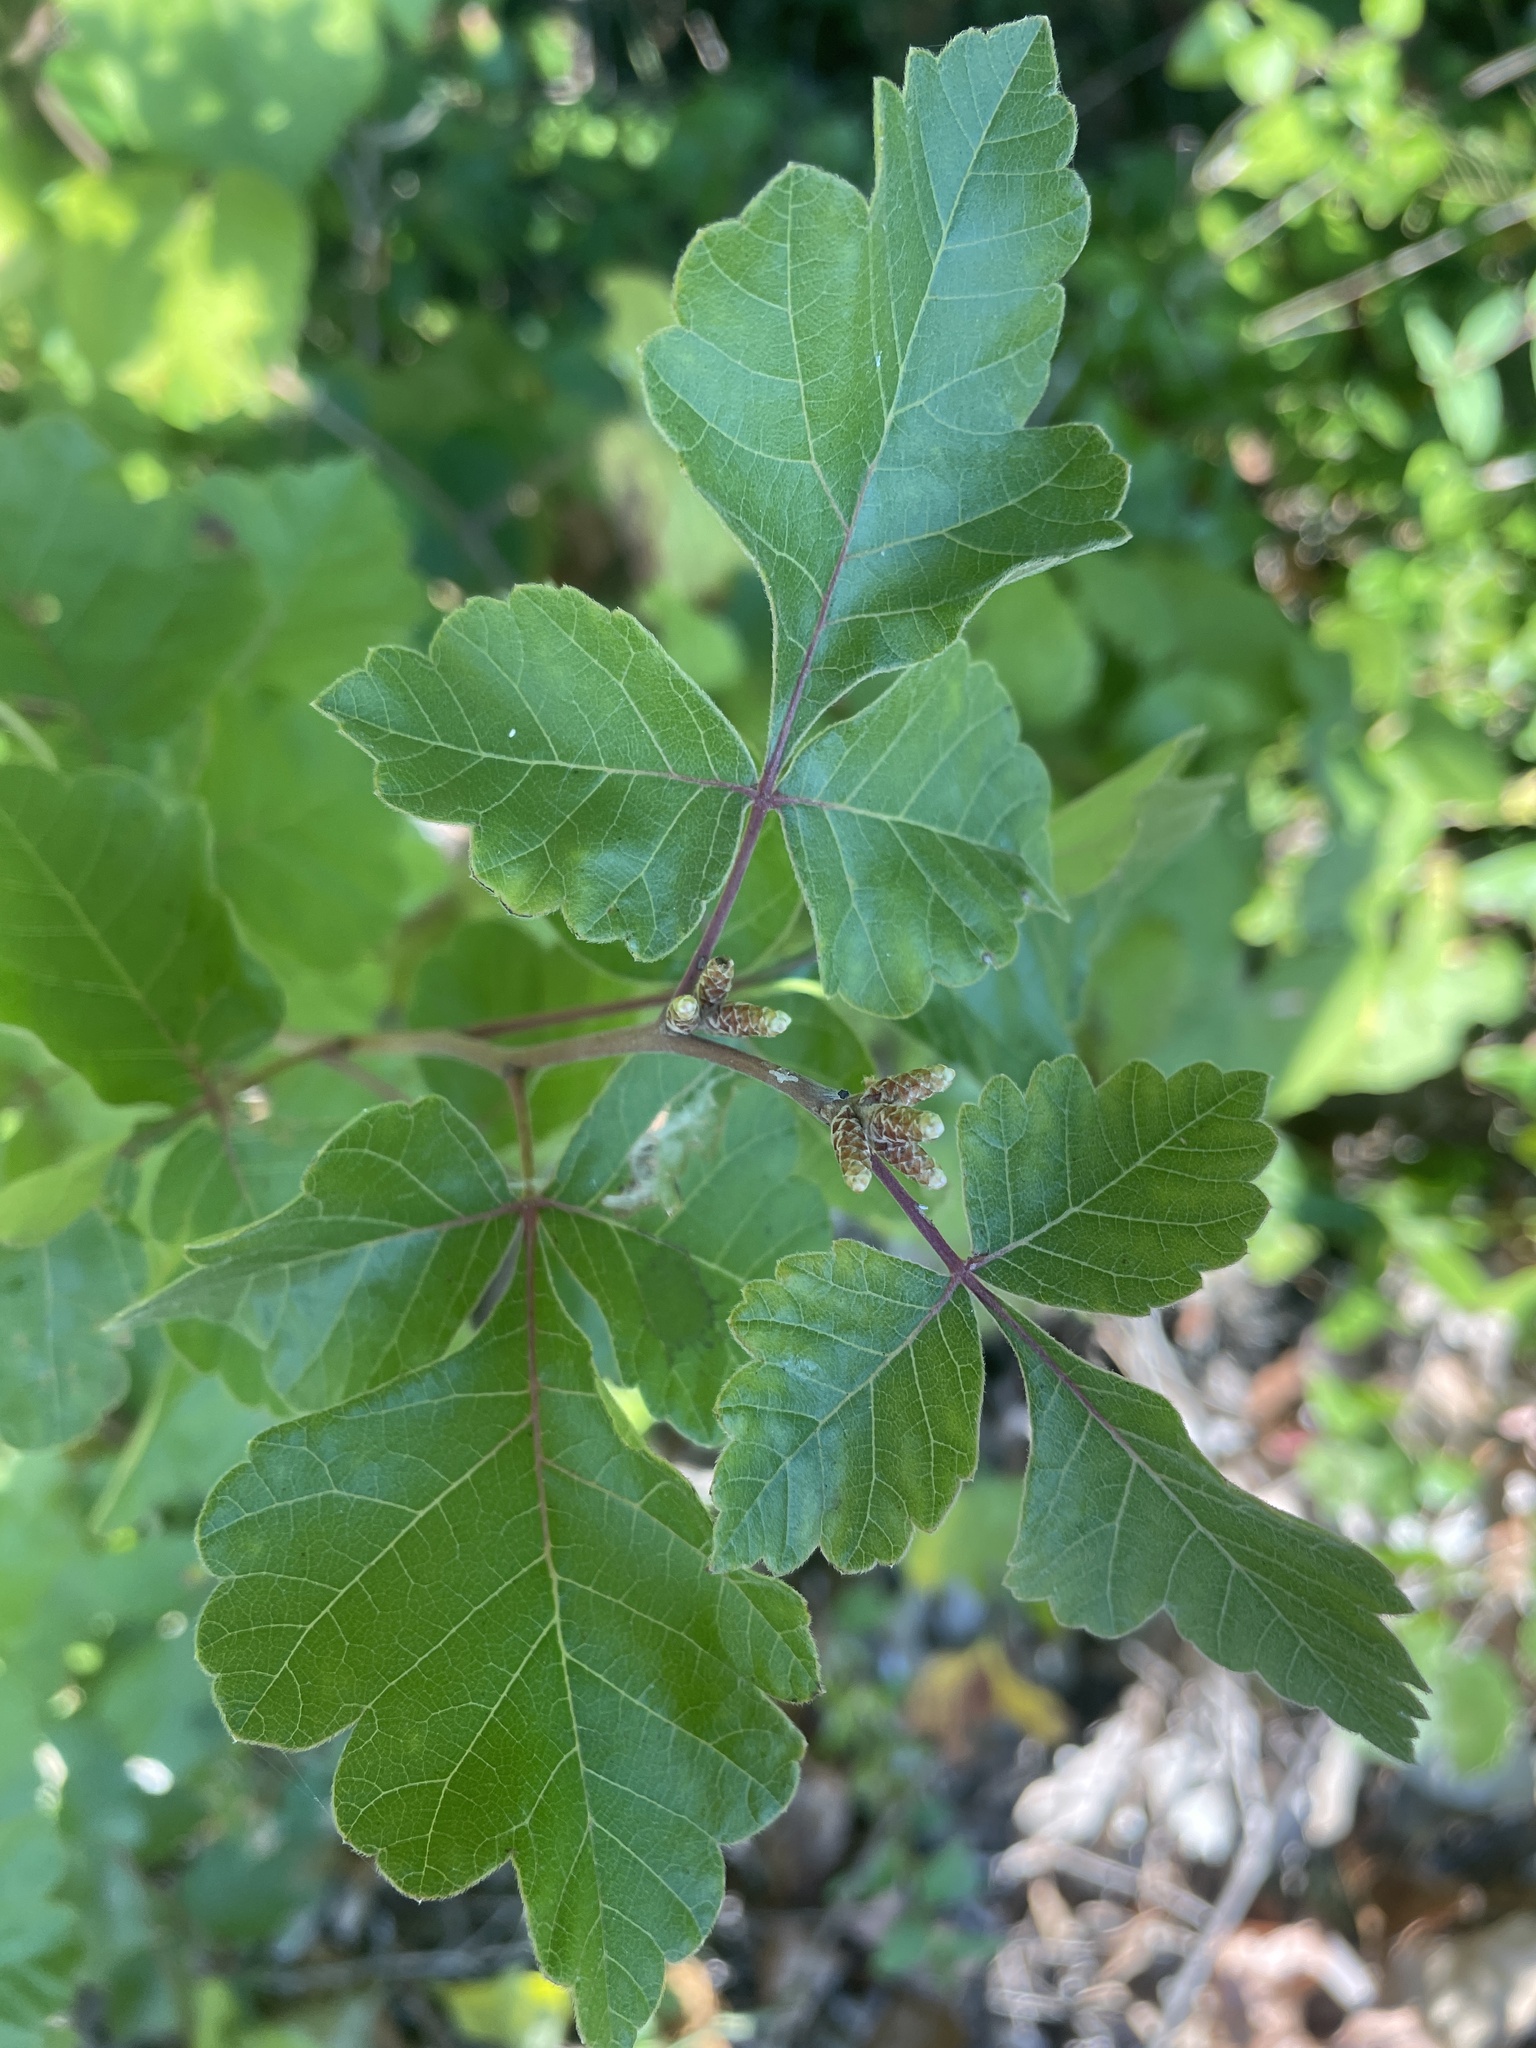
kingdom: Plantae
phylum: Tracheophyta
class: Magnoliopsida
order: Sapindales
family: Anacardiaceae
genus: Rhus
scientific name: Rhus aromatica
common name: Aromatic sumac
